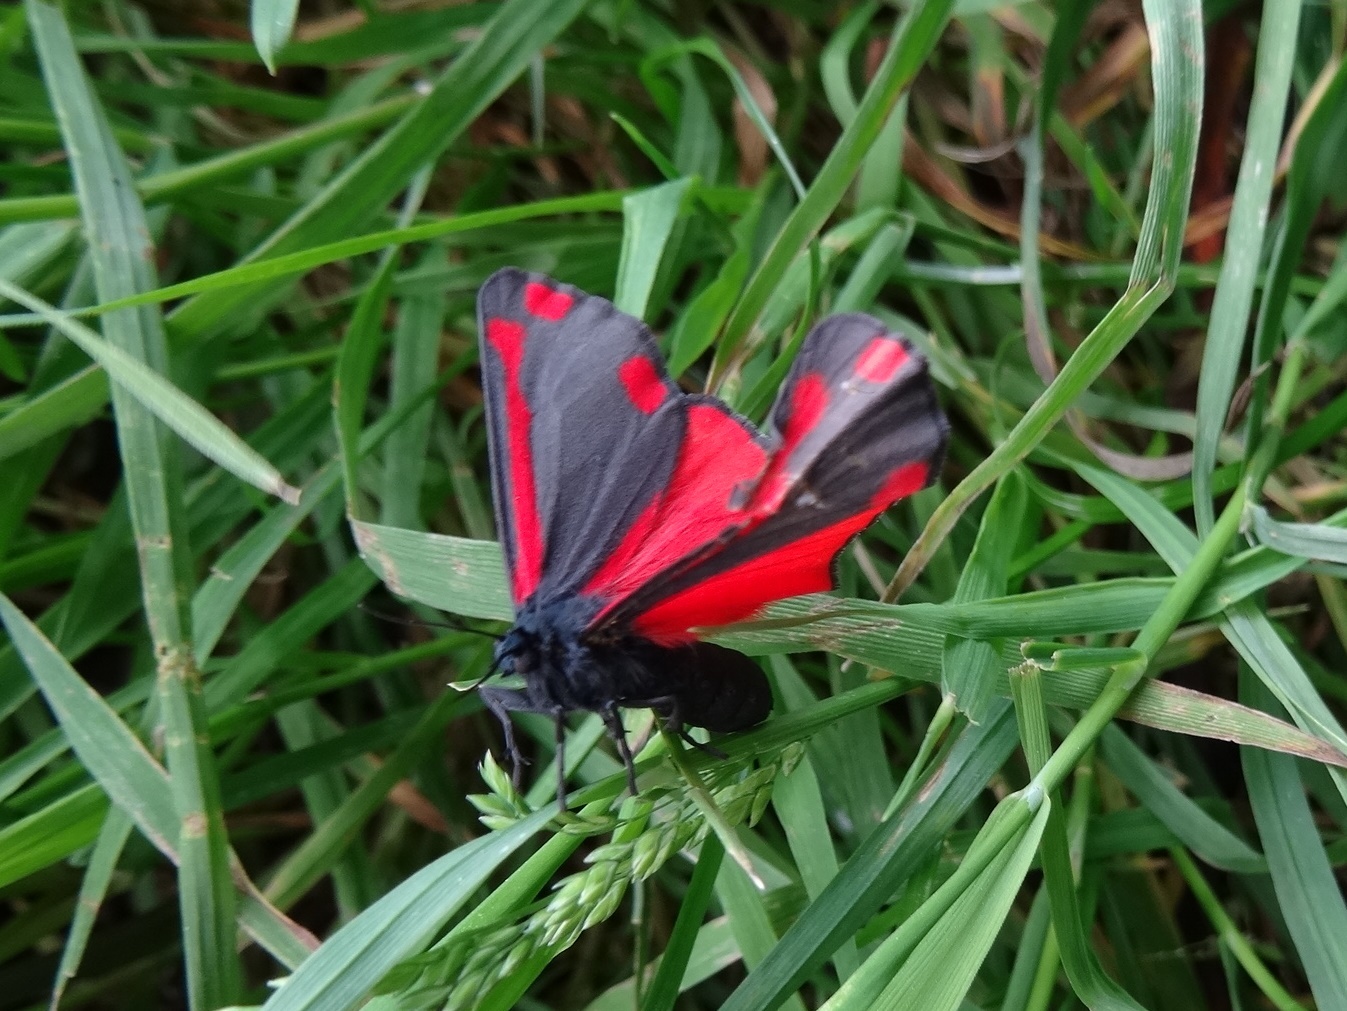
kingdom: Animalia
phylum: Arthropoda
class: Insecta
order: Lepidoptera
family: Erebidae
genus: Tyria
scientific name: Tyria jacobaeae
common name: Cinnabar
